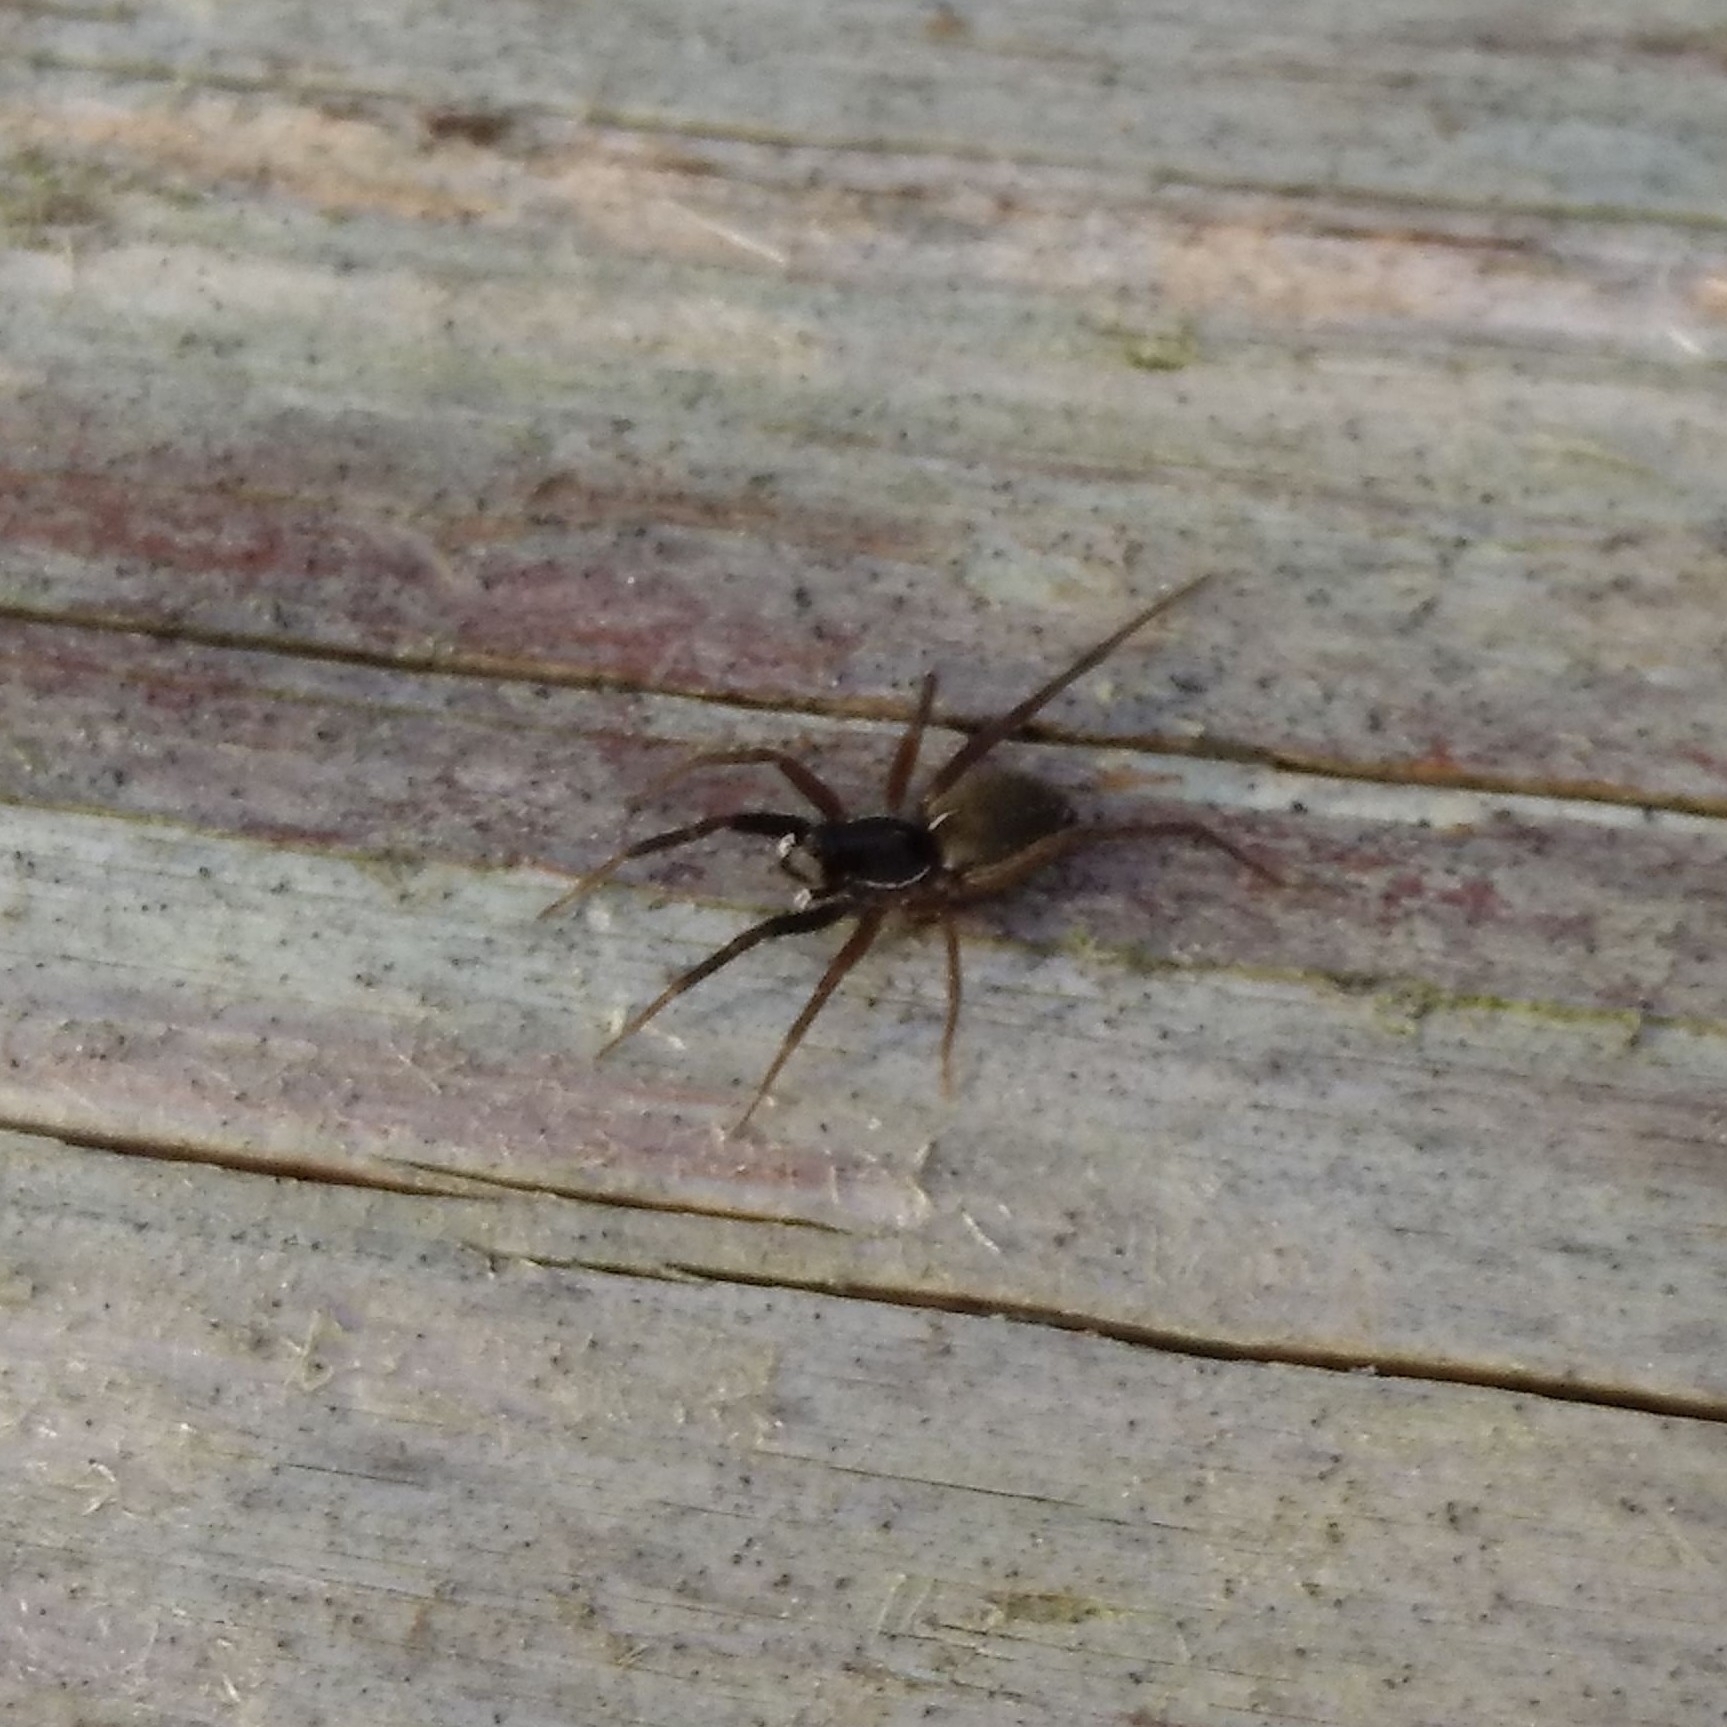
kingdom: Animalia
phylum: Arthropoda
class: Arachnida
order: Araneae
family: Lycosidae
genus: Aulonia
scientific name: Aulonia albimana
